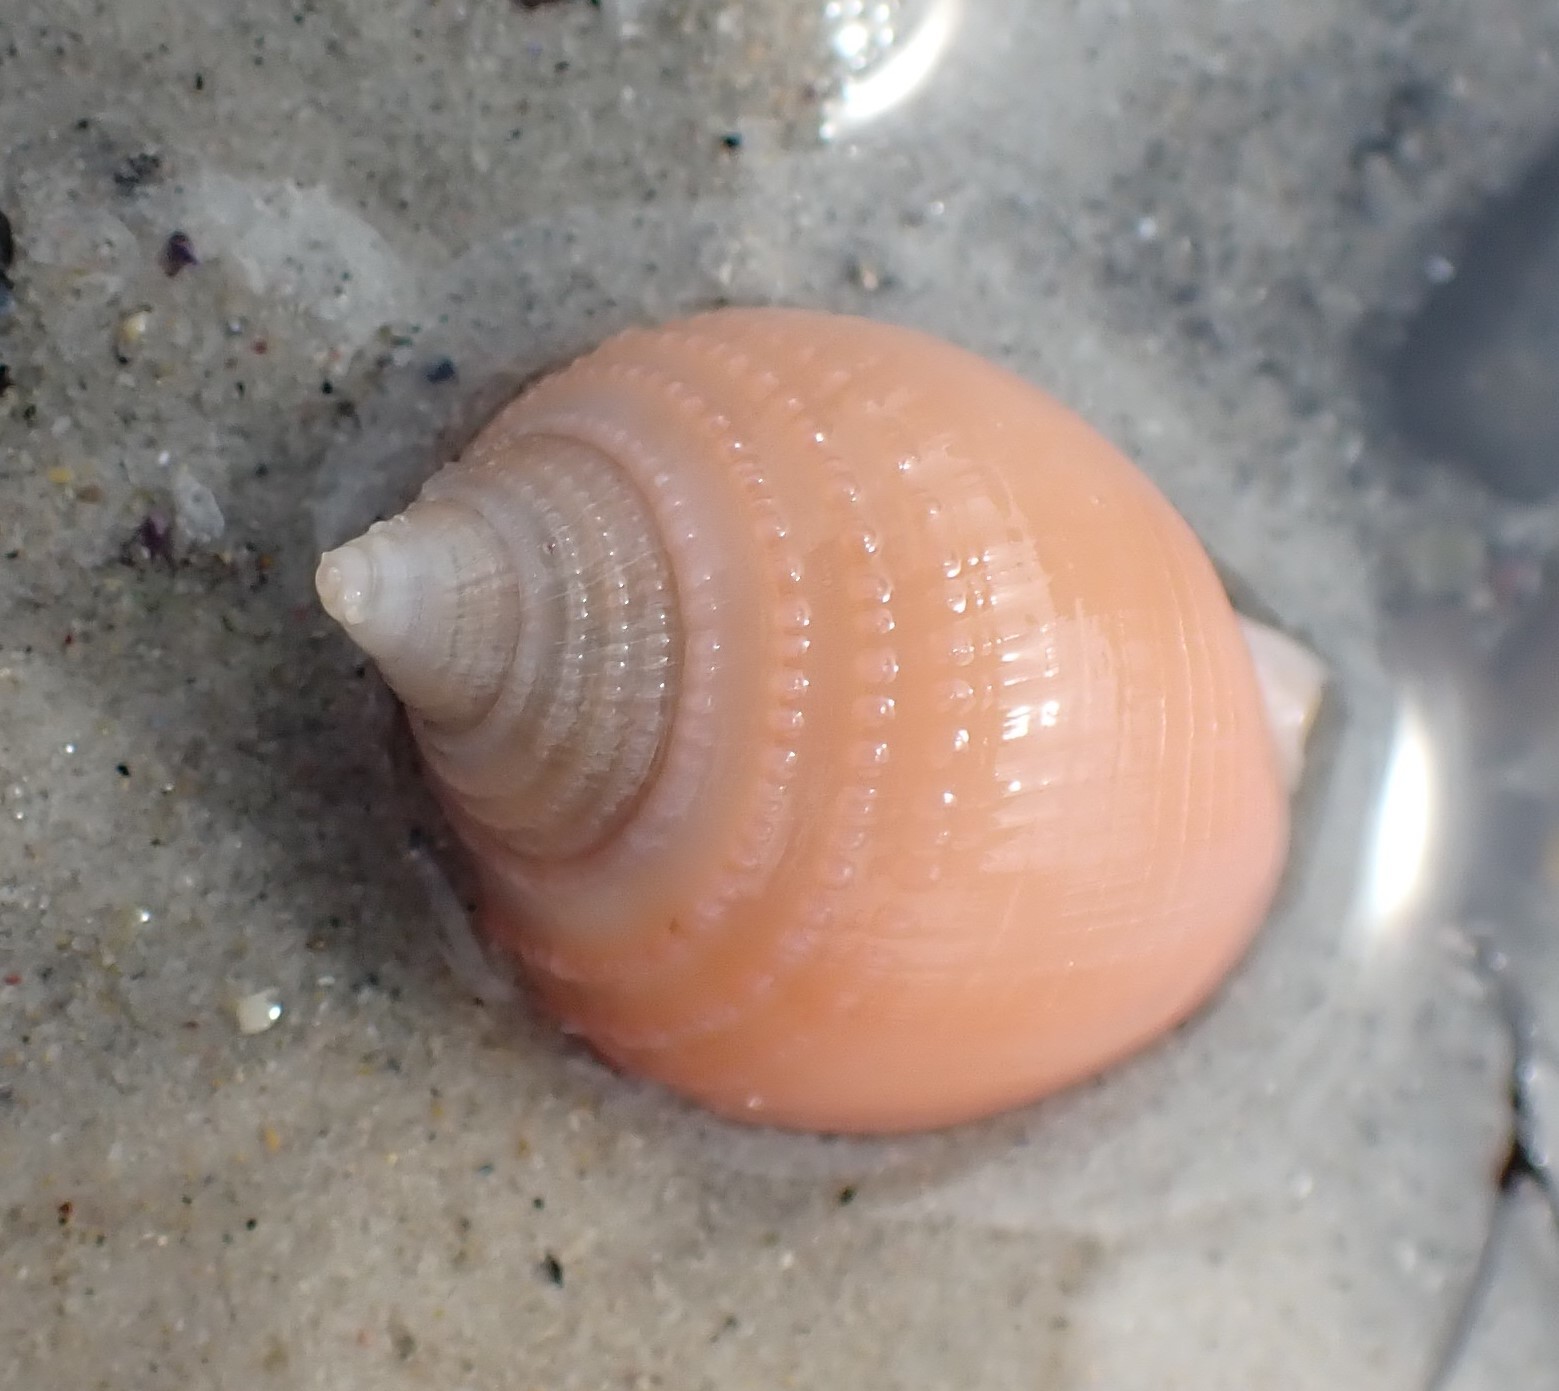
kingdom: Animalia
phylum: Mollusca
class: Gastropoda
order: Littorinimorpha
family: Cassidae
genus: Antephalium
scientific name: Antephalium
